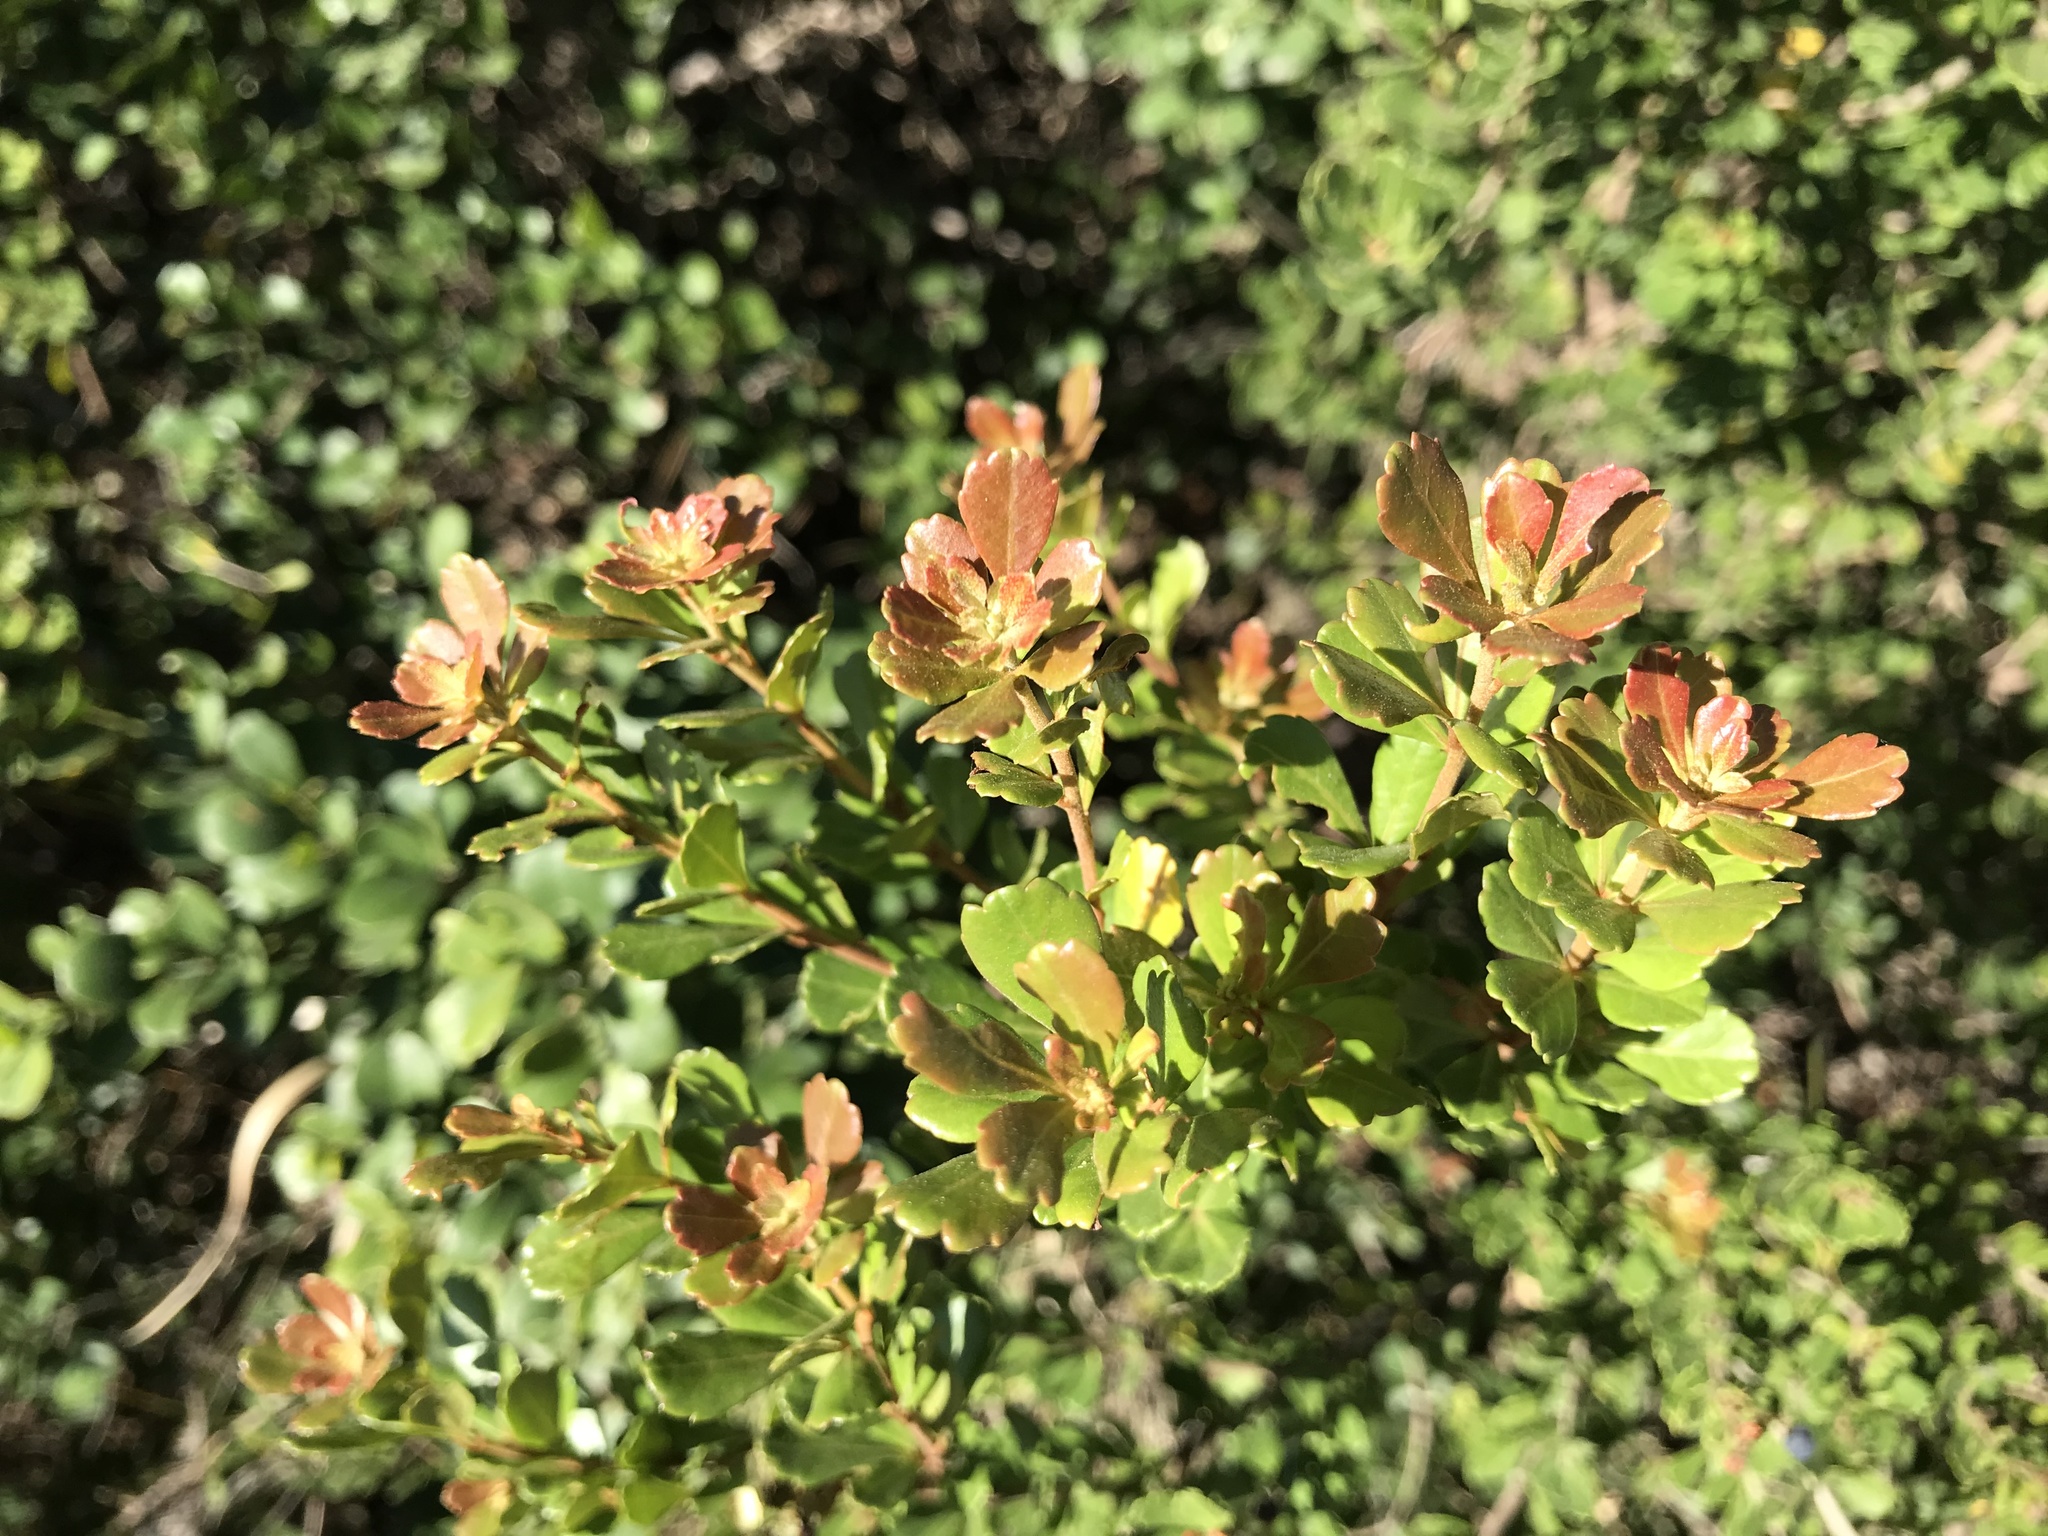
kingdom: Plantae
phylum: Tracheophyta
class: Magnoliopsida
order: Sapindales
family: Anacardiaceae
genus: Searsia
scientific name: Searsia crenata
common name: Crowberry
